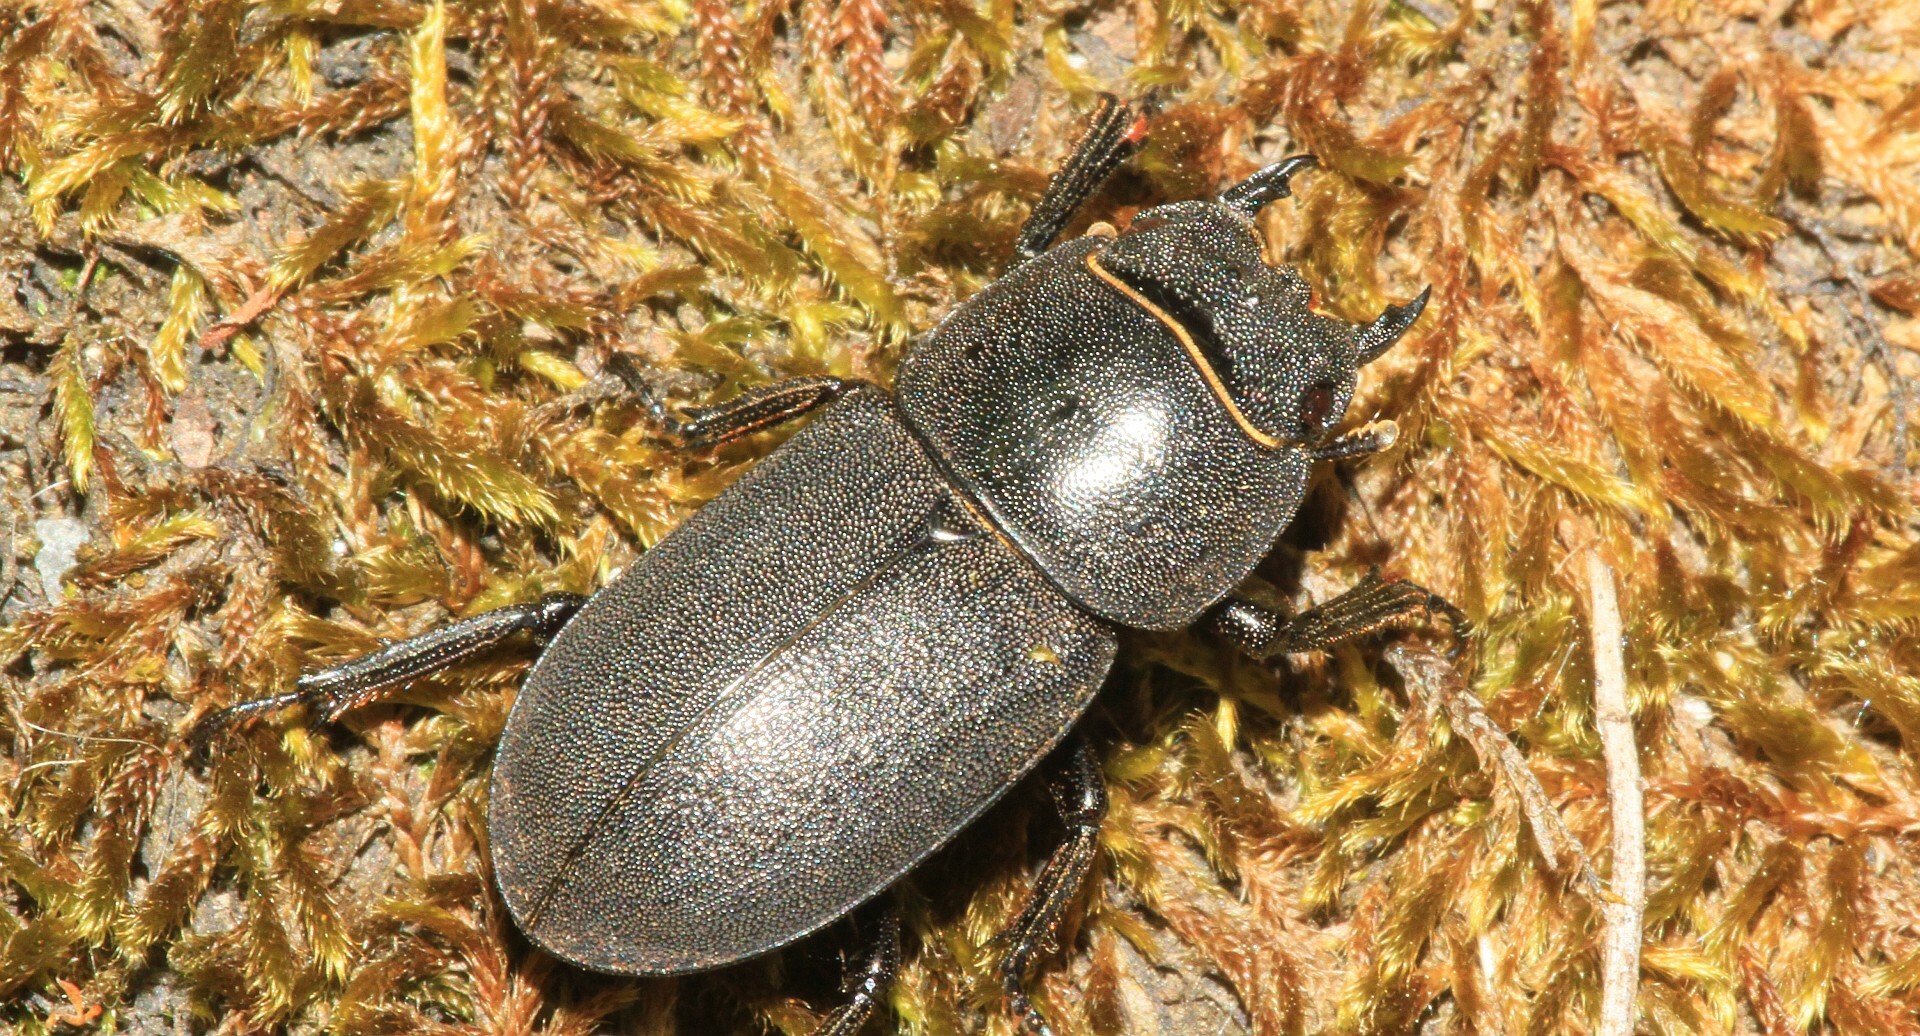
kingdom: Animalia
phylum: Arthropoda
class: Insecta
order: Coleoptera
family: Lucanidae
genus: Dorcus
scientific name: Dorcus parallelipipedus
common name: Lesser stag beetle
